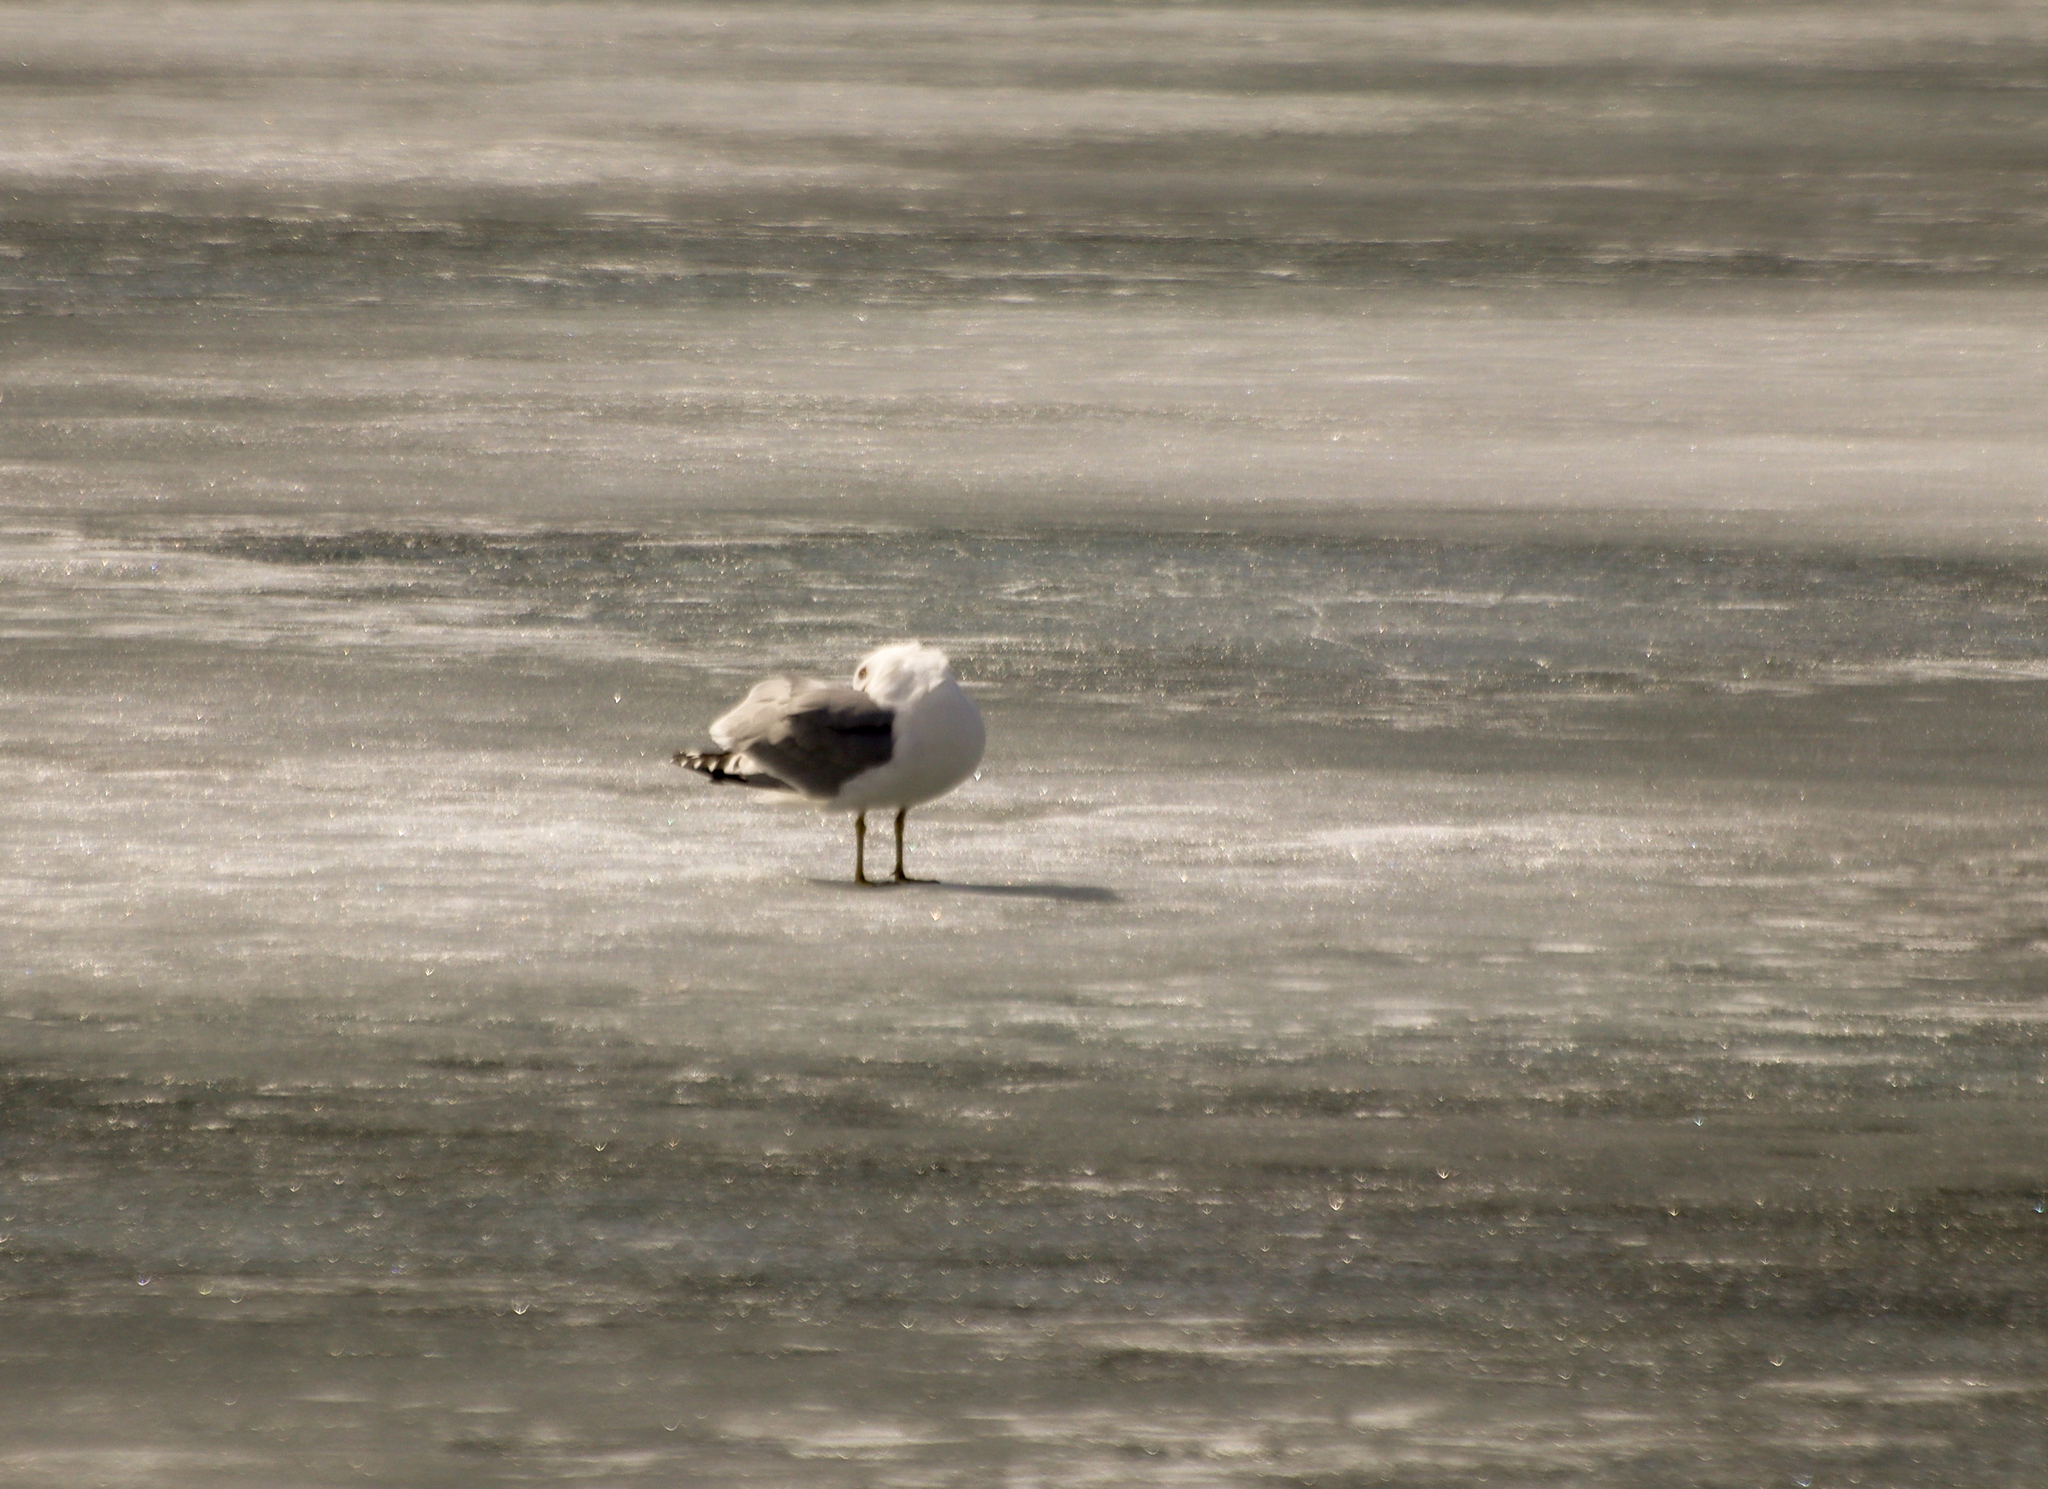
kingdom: Animalia
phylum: Chordata
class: Aves
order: Charadriiformes
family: Laridae
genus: Larus
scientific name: Larus delawarensis
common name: Ring-billed gull
